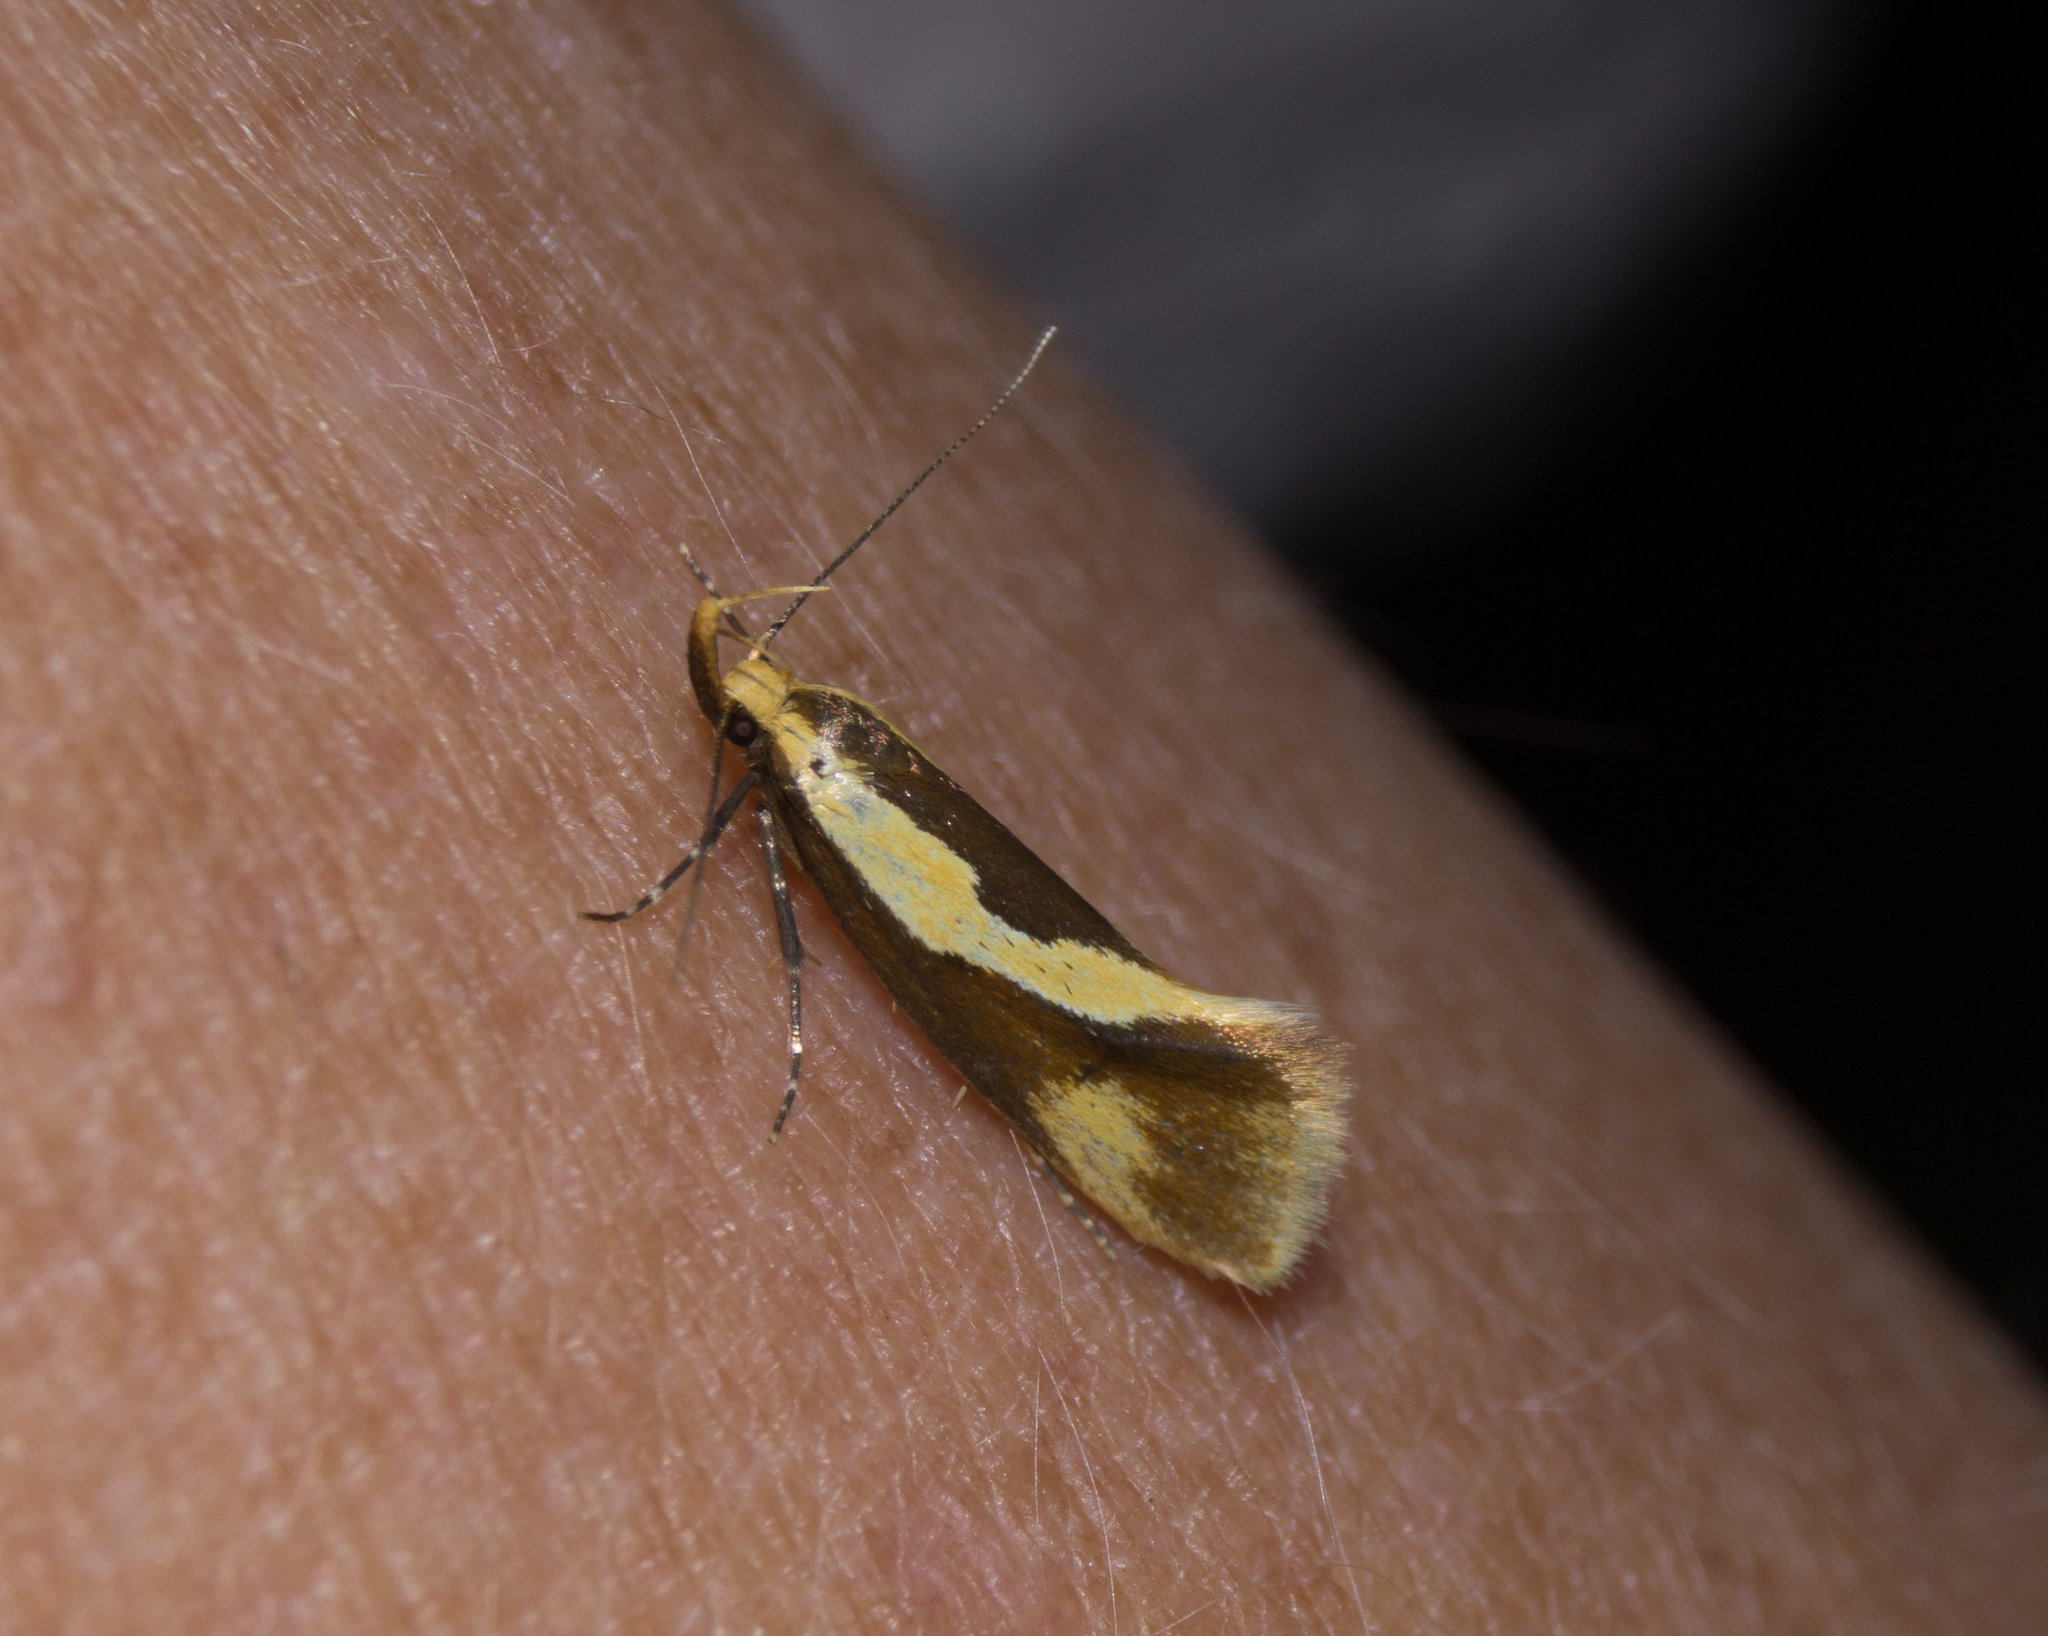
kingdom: Animalia
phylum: Arthropoda
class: Insecta
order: Lepidoptera
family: Oecophoridae
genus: Harpella
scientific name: Harpella forficella
